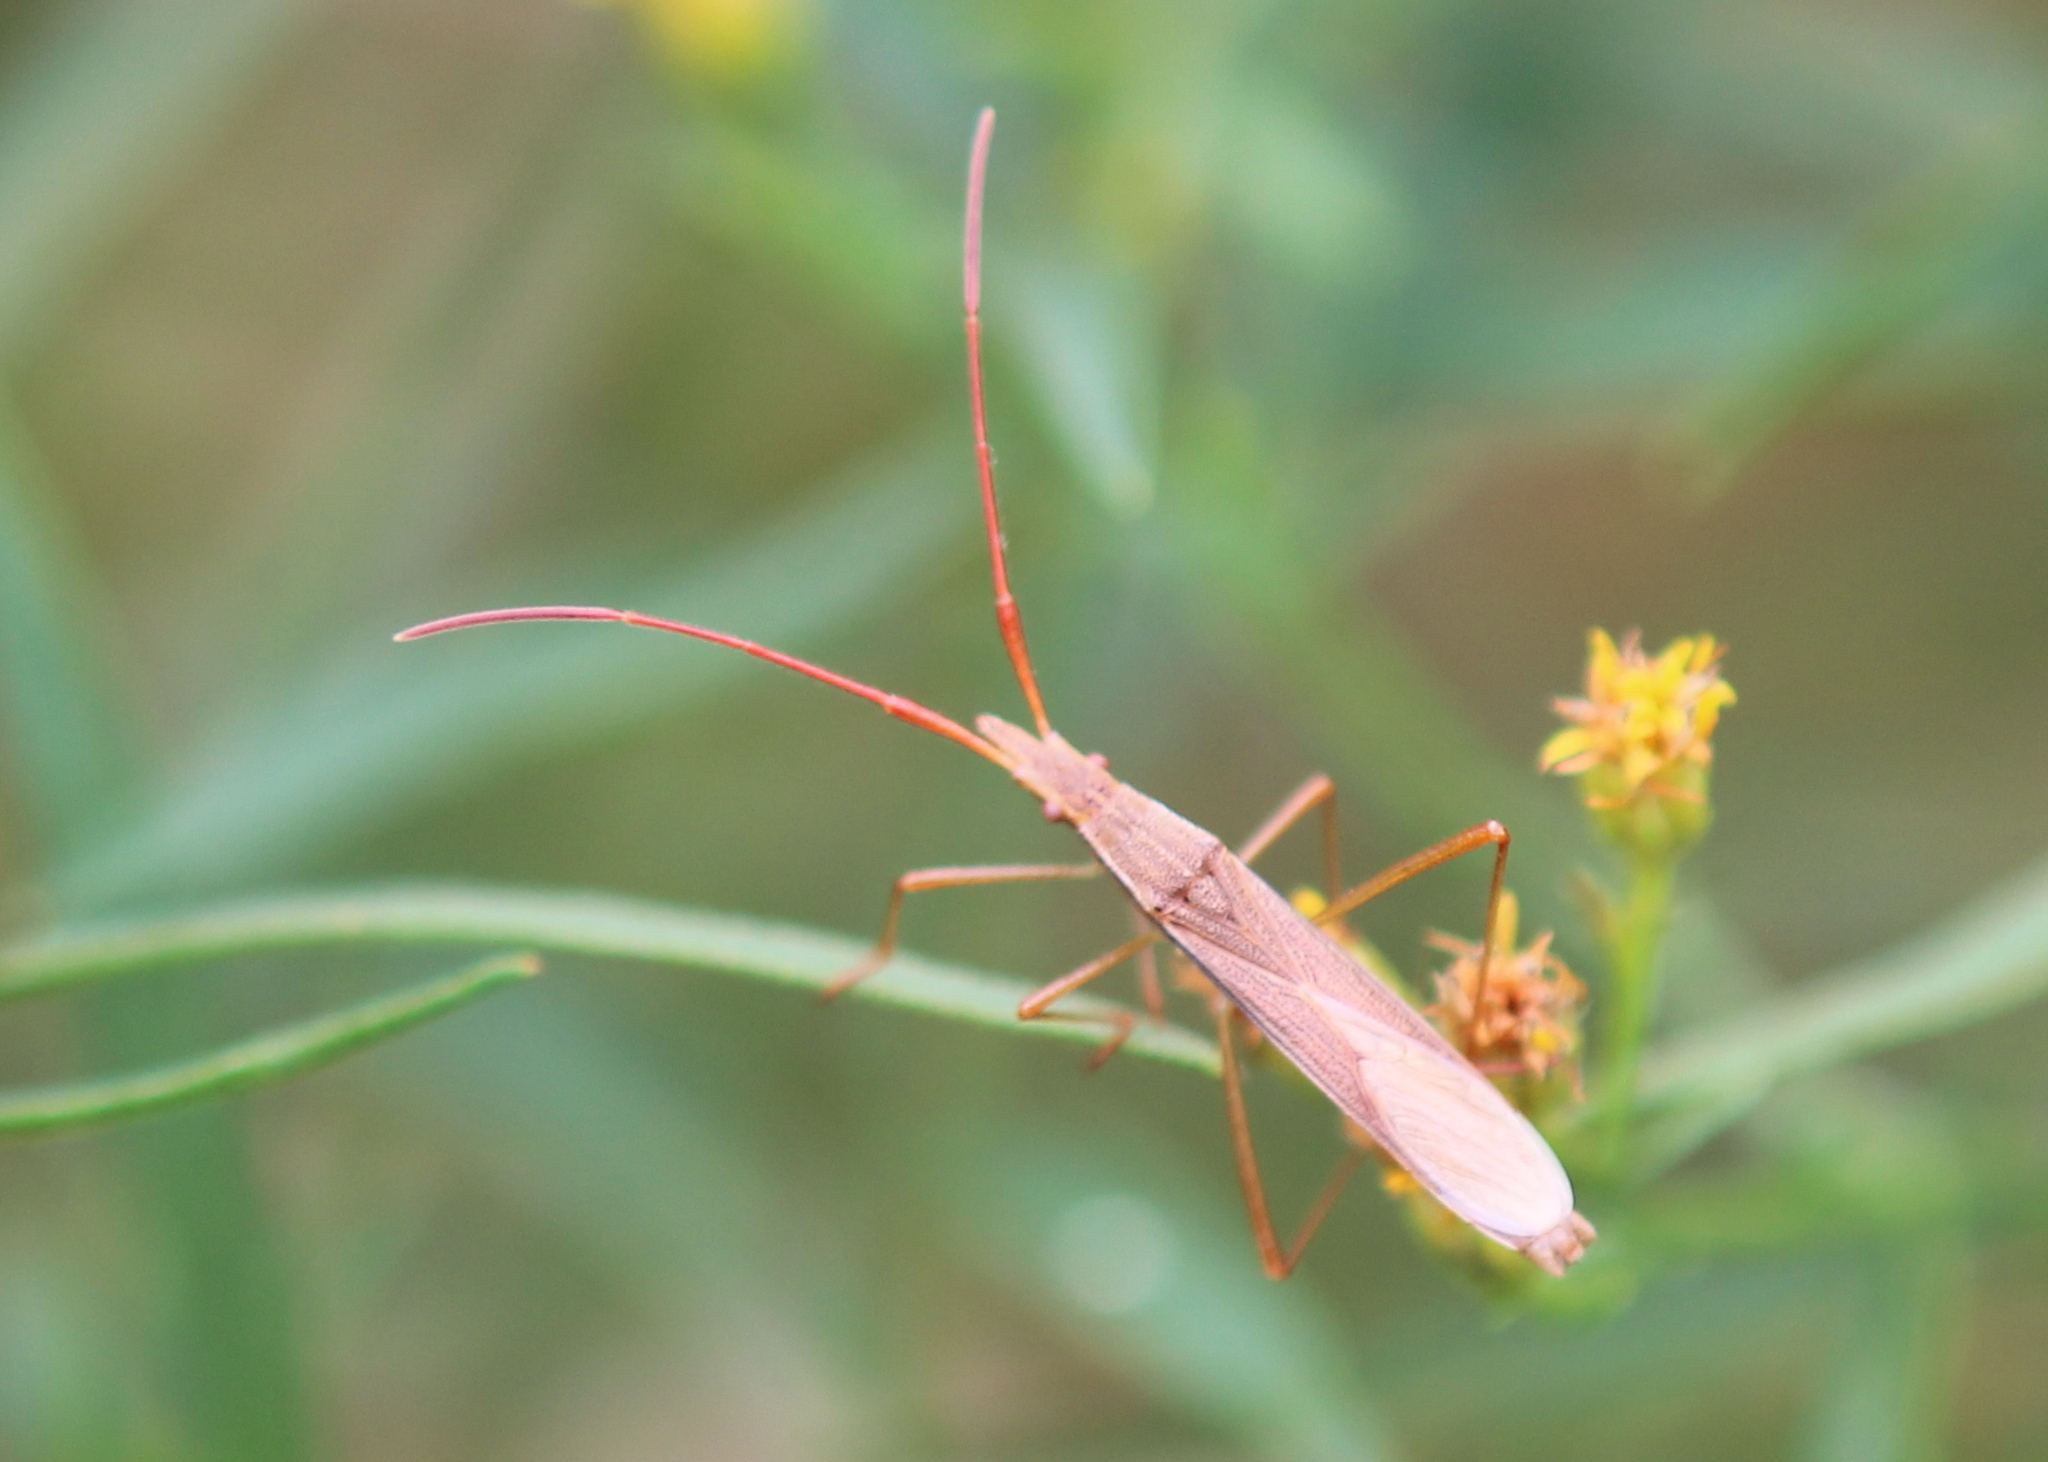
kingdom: Animalia
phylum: Arthropoda
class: Insecta
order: Hemiptera
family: Alydidae
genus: Protenor
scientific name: Protenor belfragei
